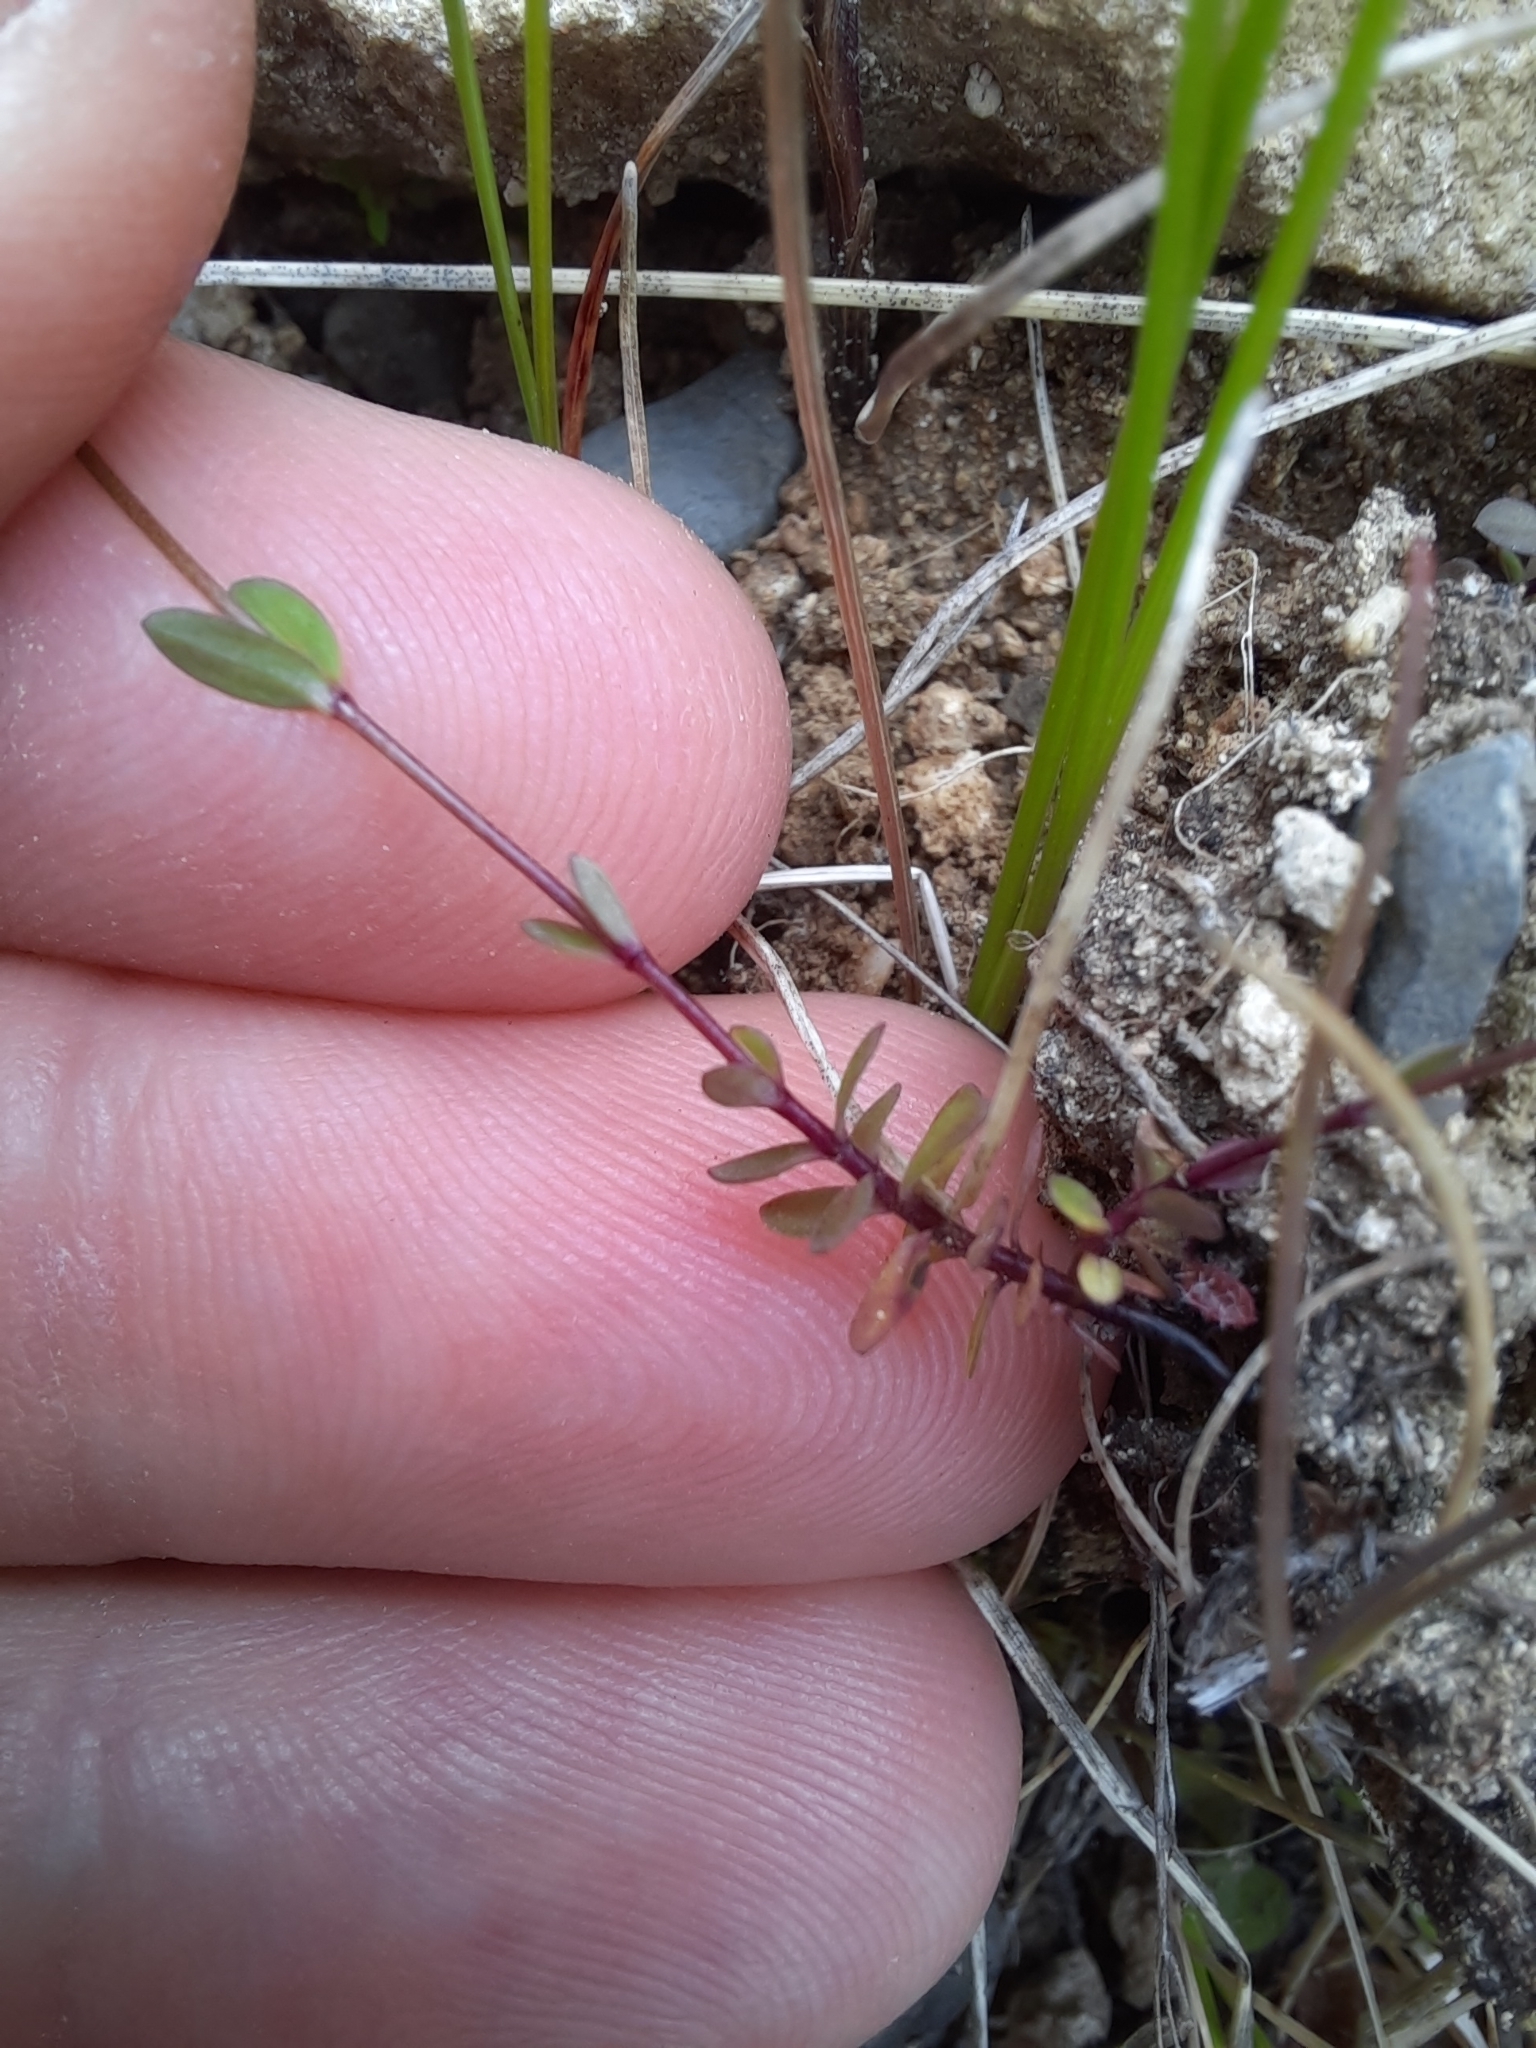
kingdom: Plantae
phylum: Tracheophyta
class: Magnoliopsida
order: Malpighiales
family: Linaceae
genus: Linum
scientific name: Linum catharticum
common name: Fairy flax
